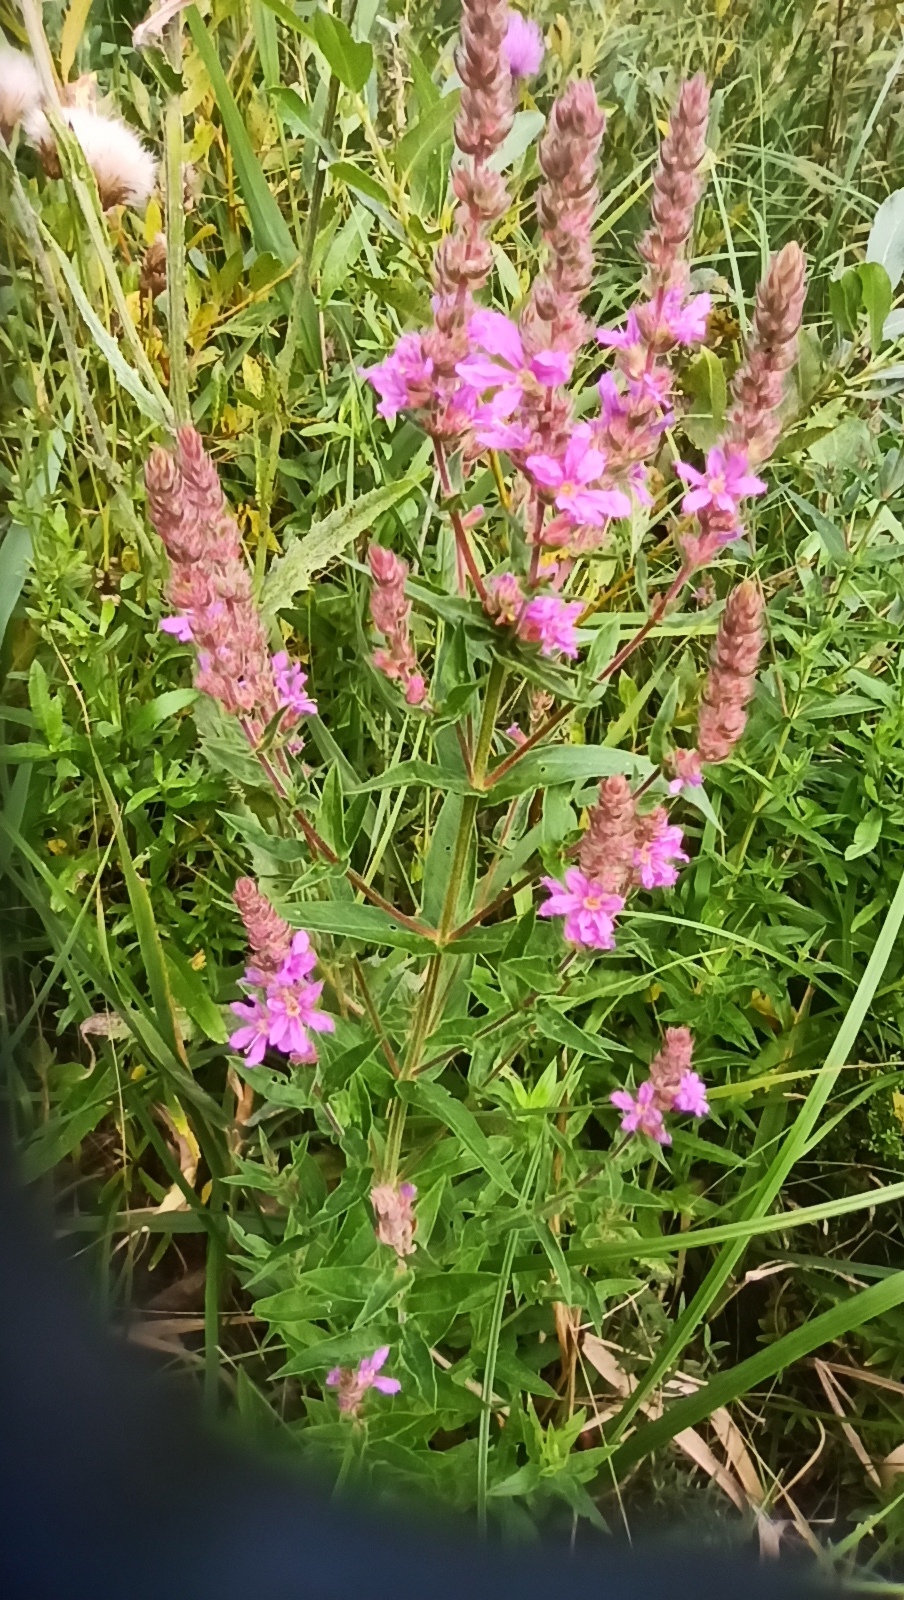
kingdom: Plantae
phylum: Tracheophyta
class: Magnoliopsida
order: Myrtales
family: Lythraceae
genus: Lythrum
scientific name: Lythrum salicaria
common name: Purple loosestrife
